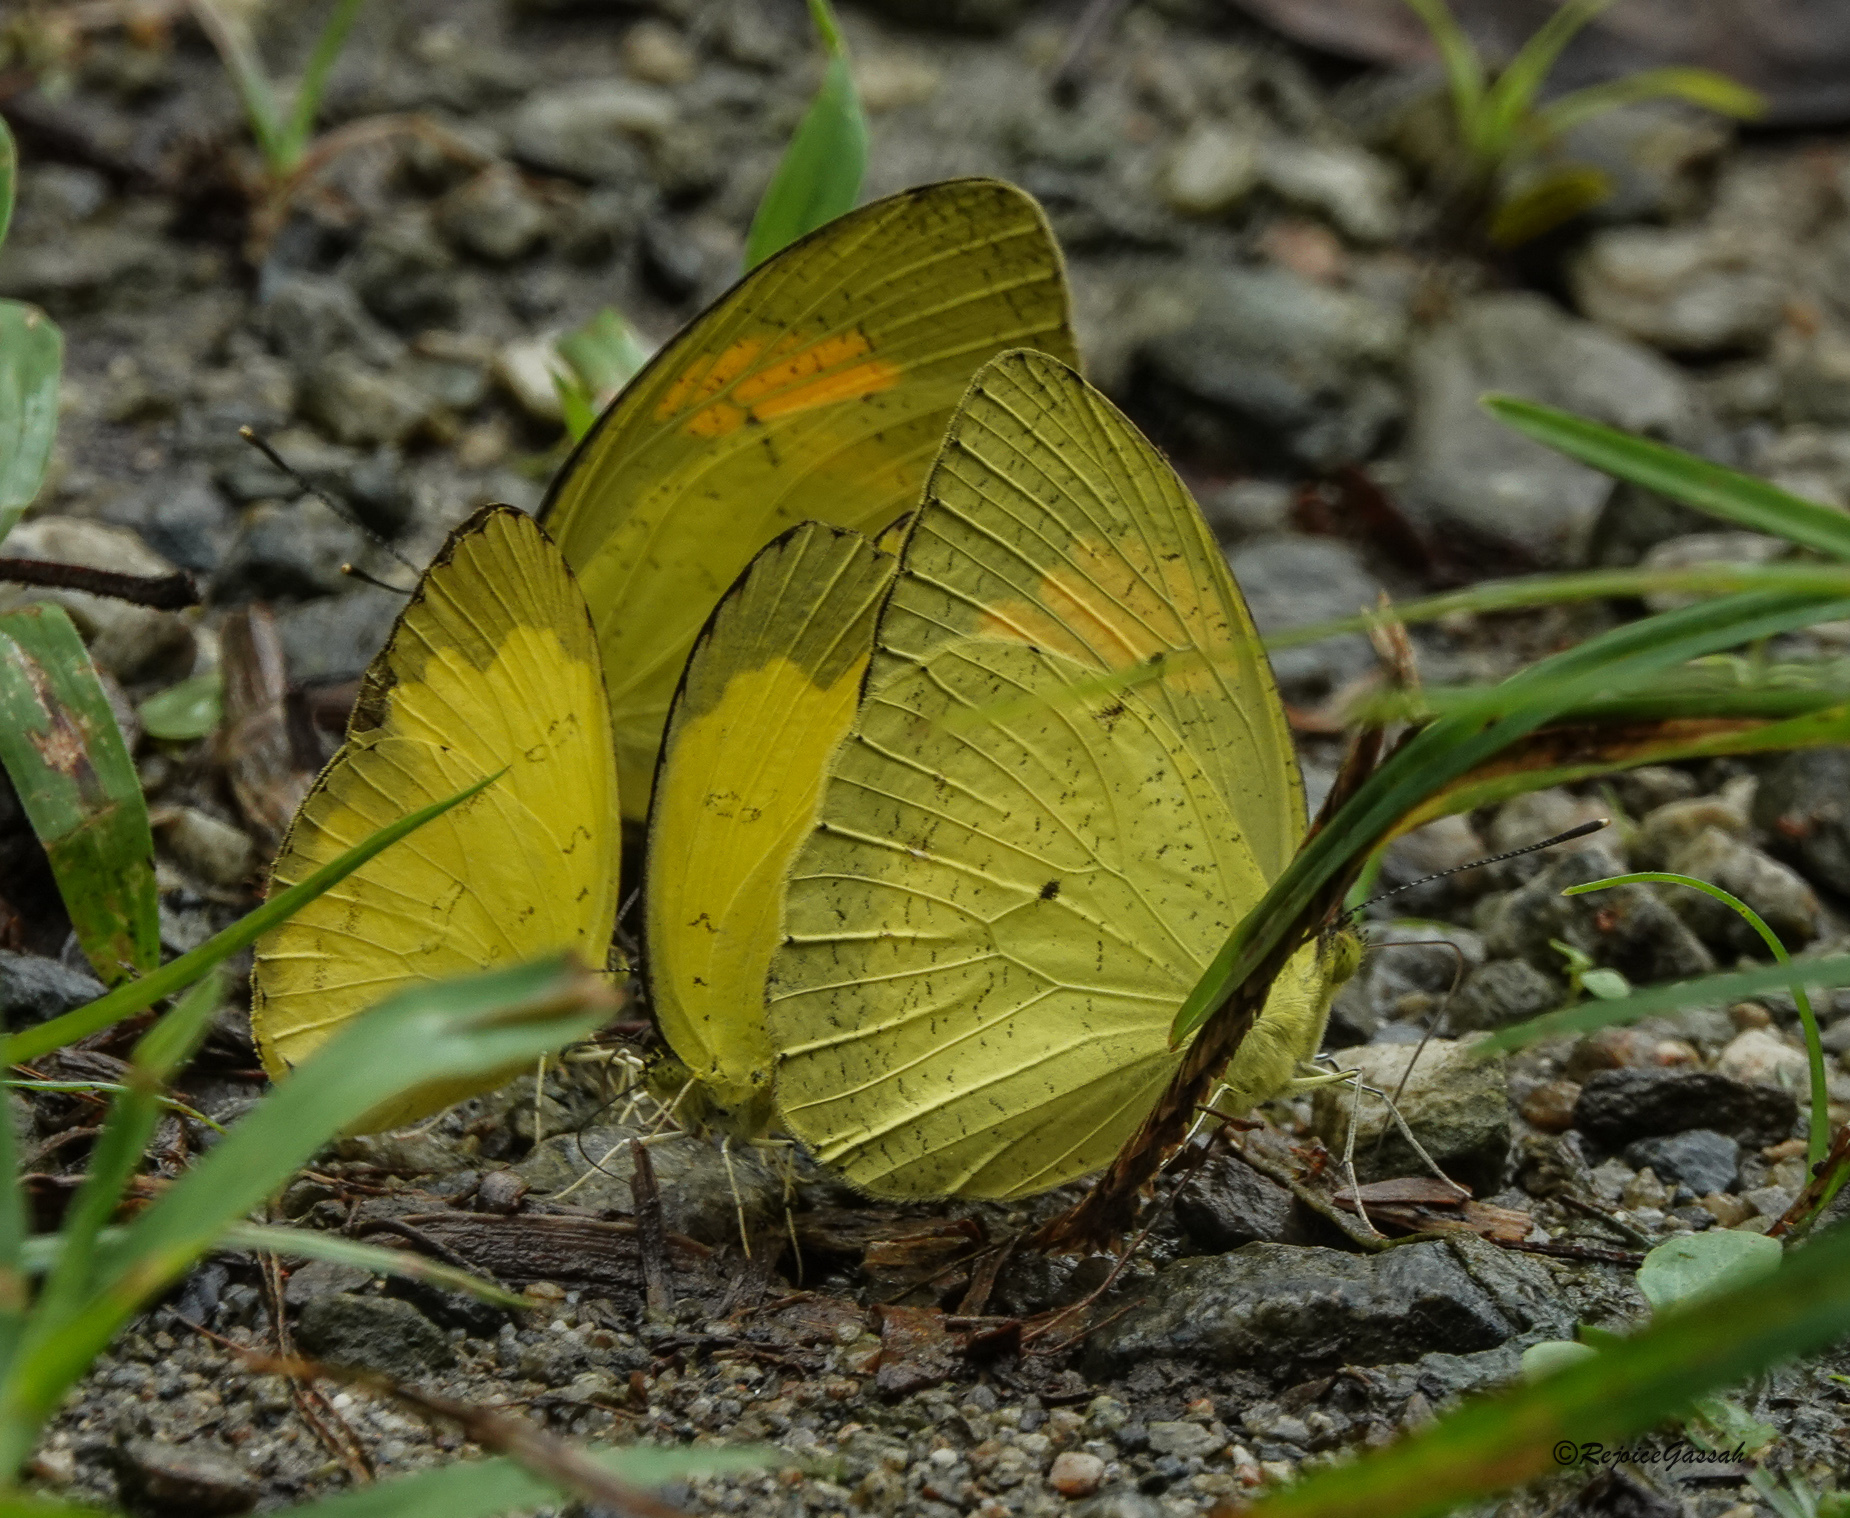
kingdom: Animalia
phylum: Arthropoda
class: Insecta
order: Lepidoptera
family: Pieridae
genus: Ixias
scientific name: Ixias pyrene
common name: Yellow orange tip
